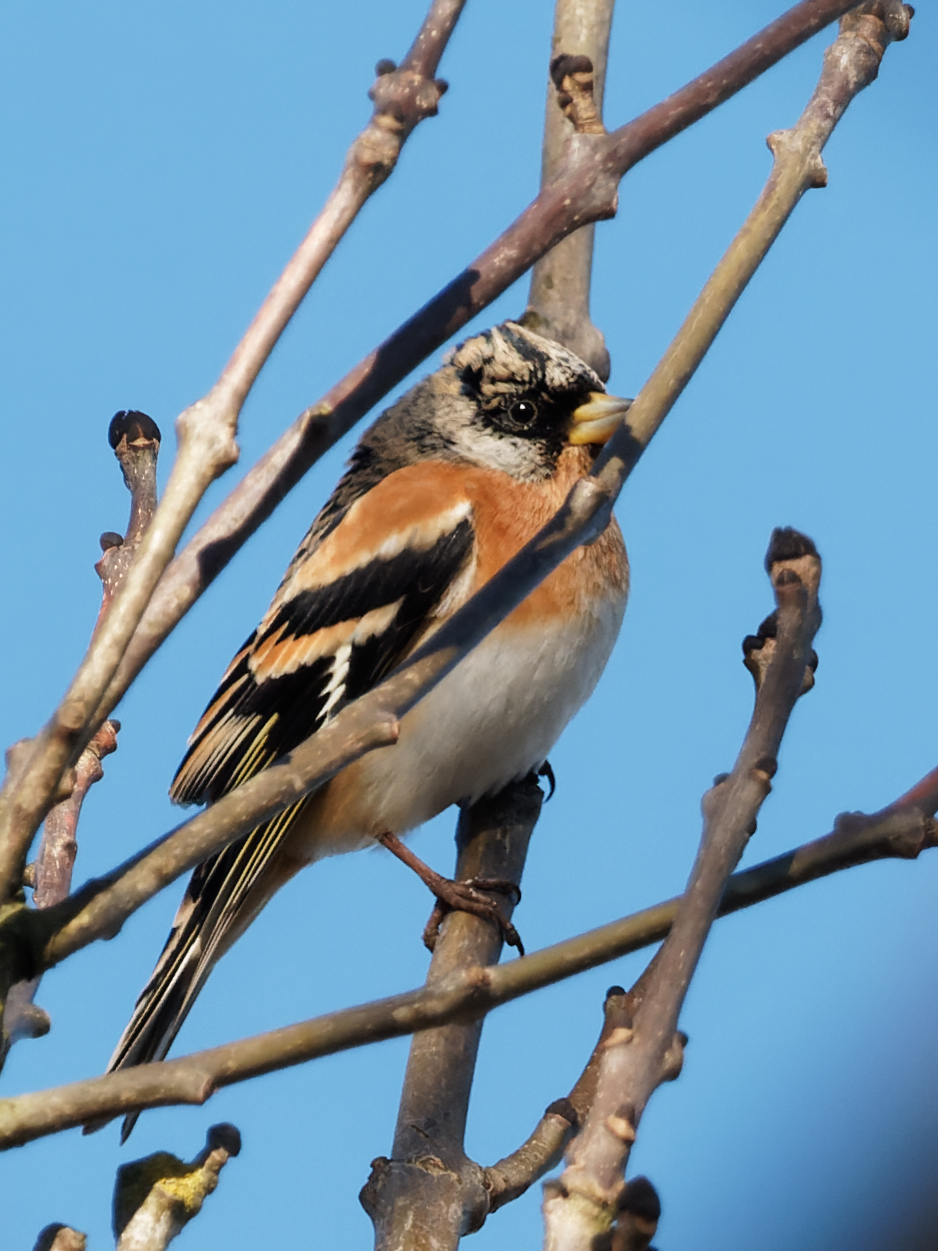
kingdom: Animalia
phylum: Chordata
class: Aves
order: Passeriformes
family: Fringillidae
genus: Fringilla
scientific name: Fringilla montifringilla
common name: Brambling
